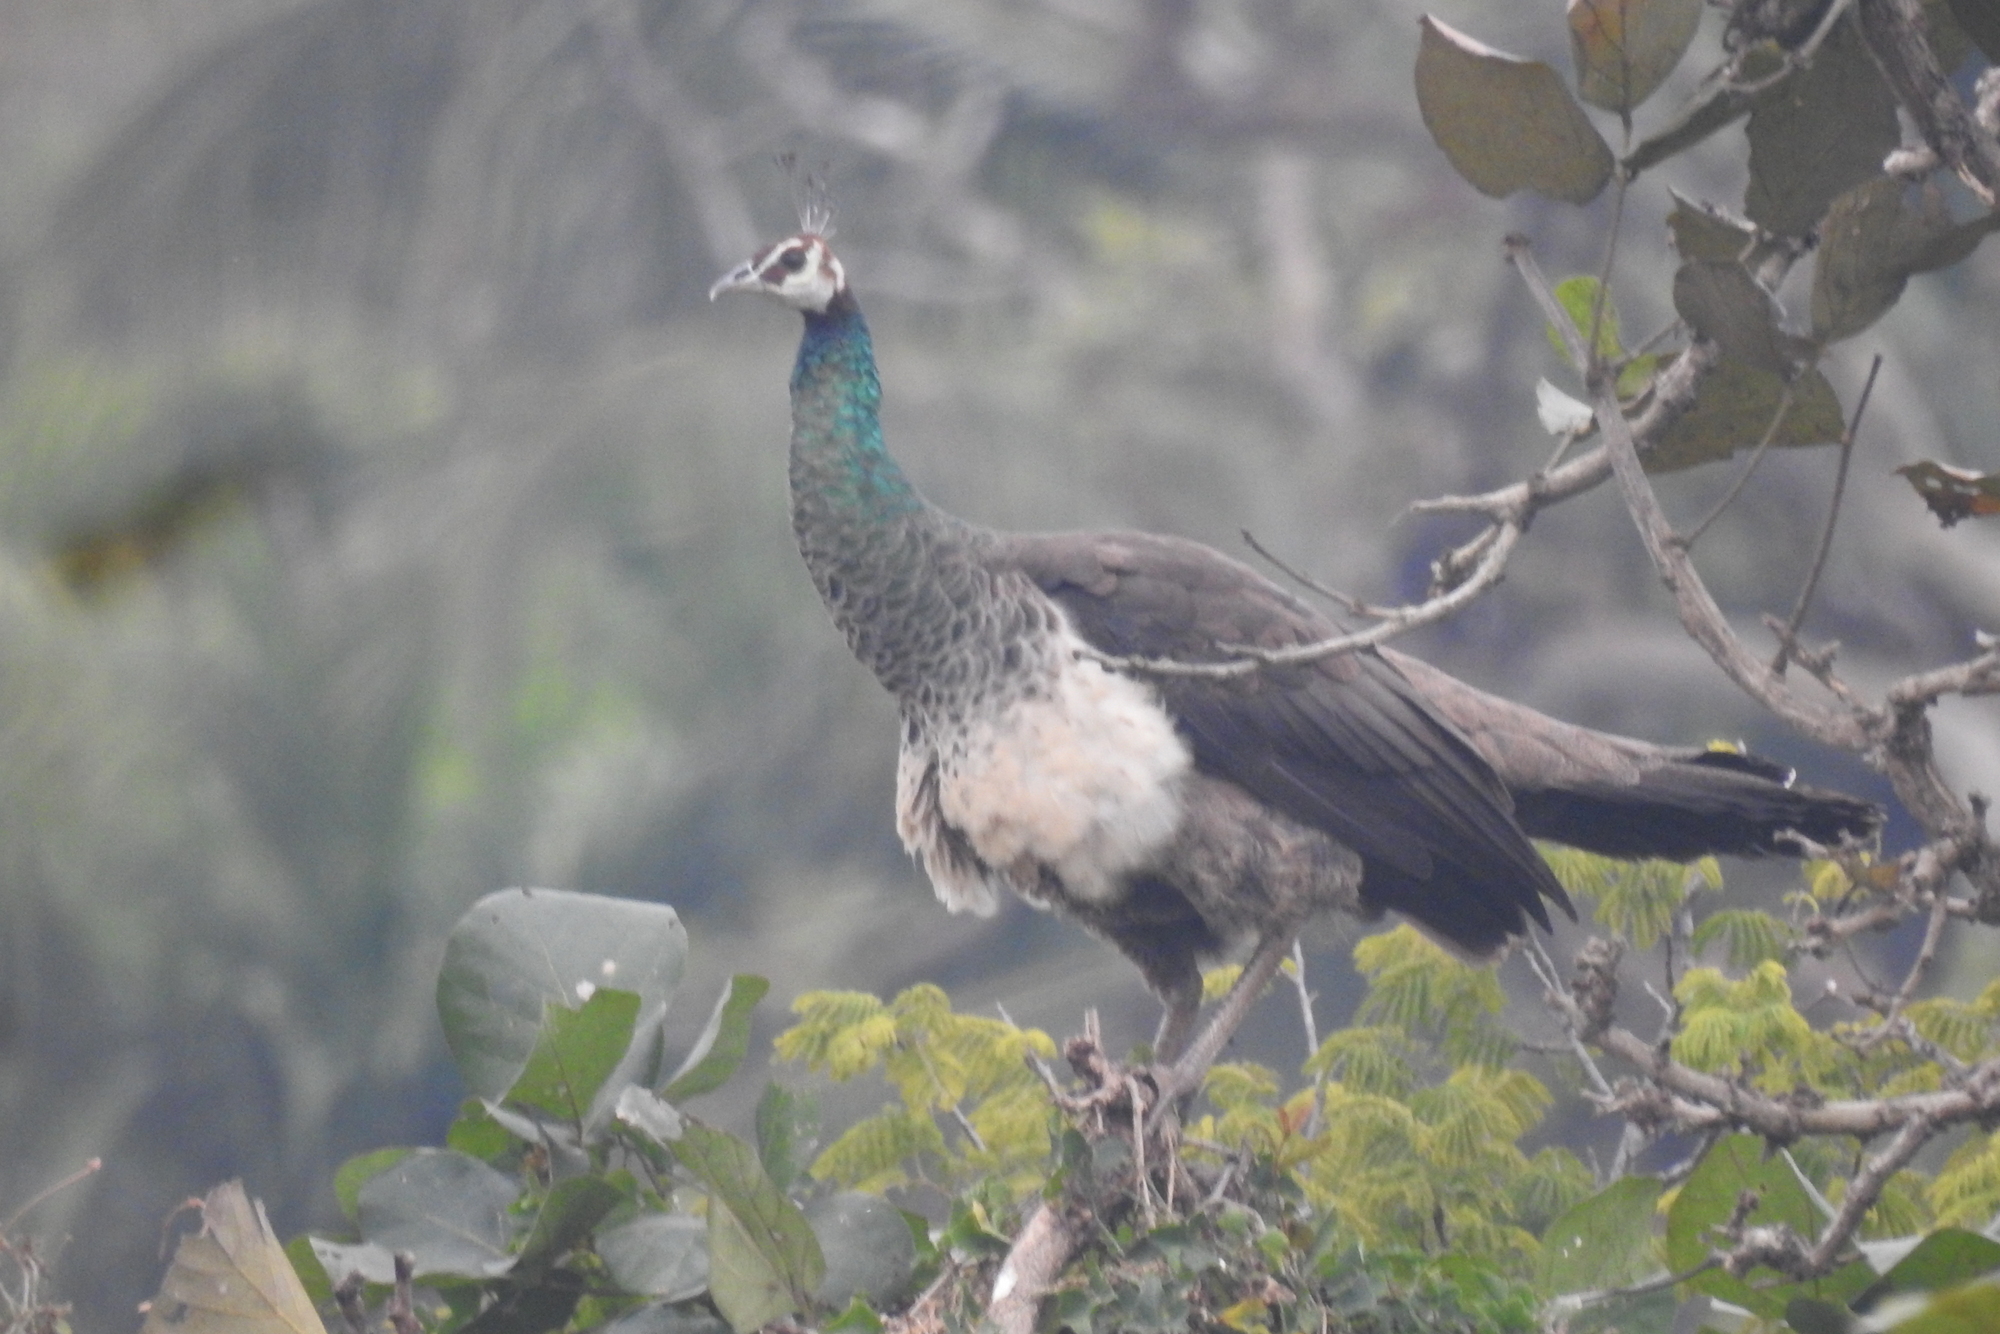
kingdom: Animalia
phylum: Chordata
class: Aves
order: Galliformes
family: Phasianidae
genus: Pavo
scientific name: Pavo cristatus
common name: Indian peafowl
